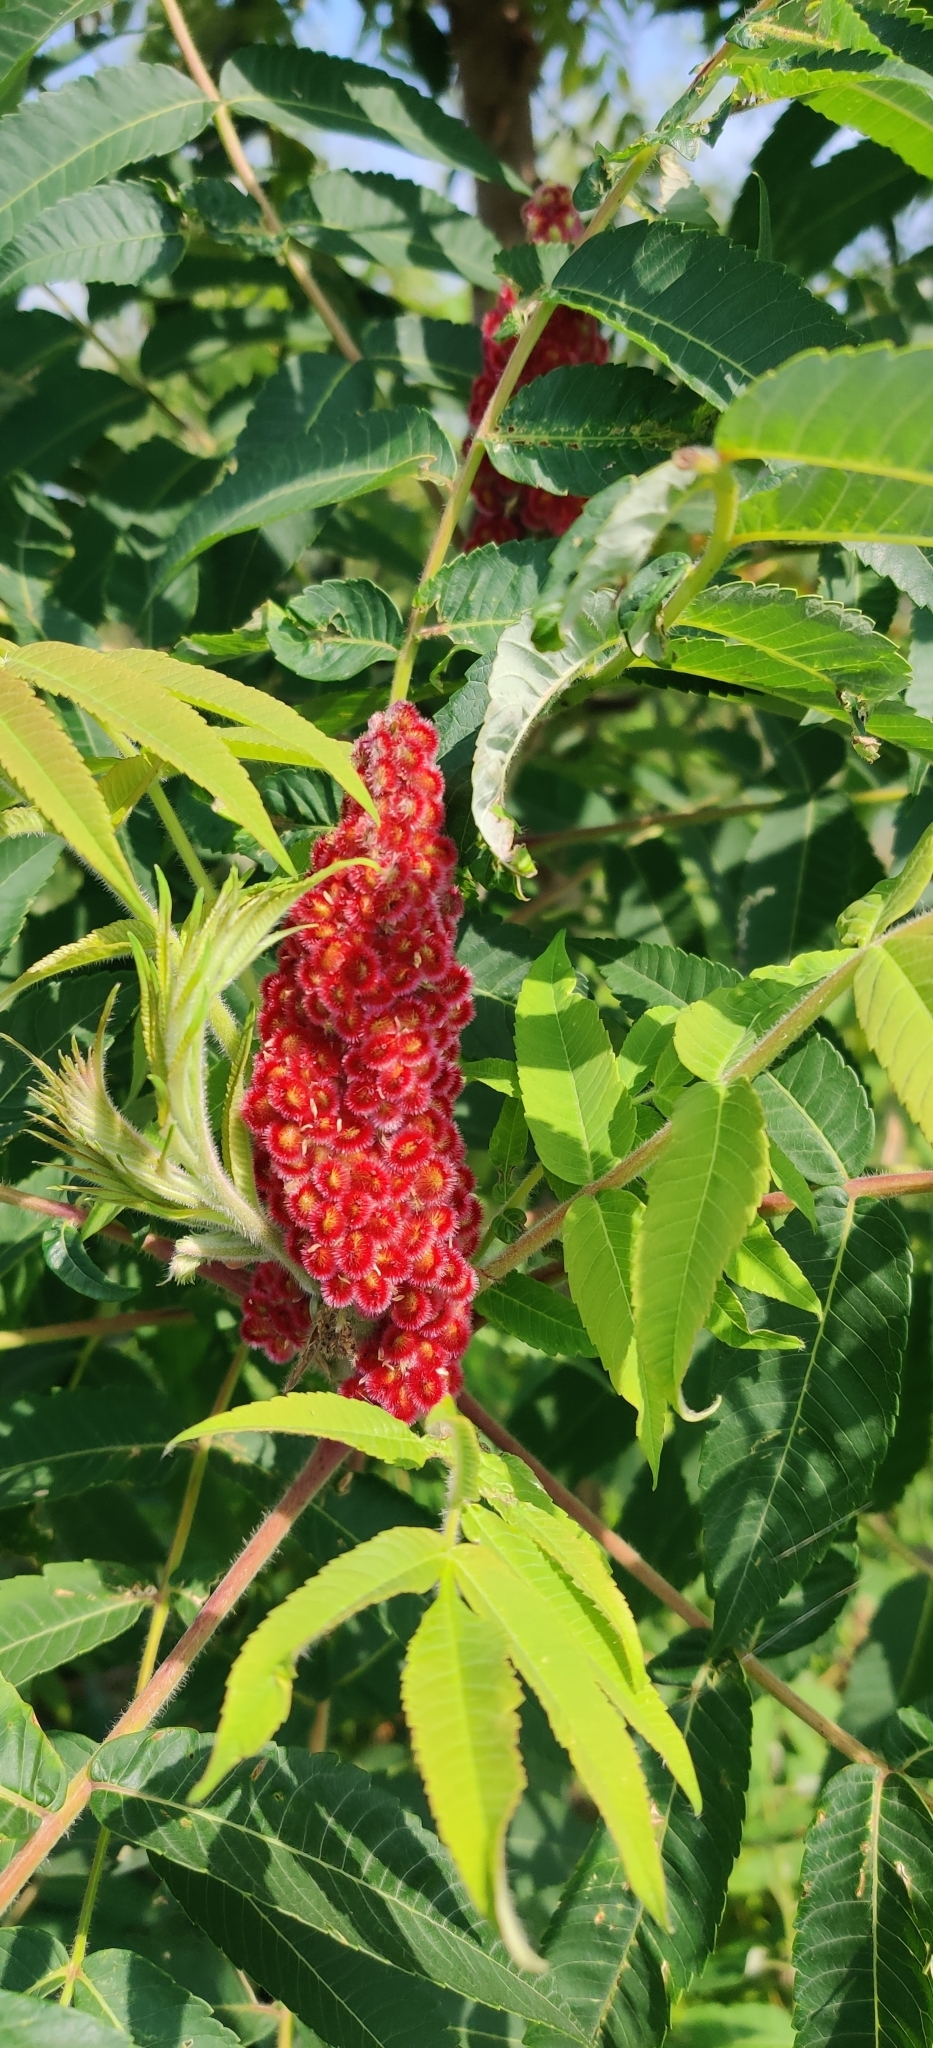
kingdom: Plantae
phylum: Tracheophyta
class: Magnoliopsida
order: Sapindales
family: Anacardiaceae
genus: Rhus
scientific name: Rhus typhina
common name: Staghorn sumac
